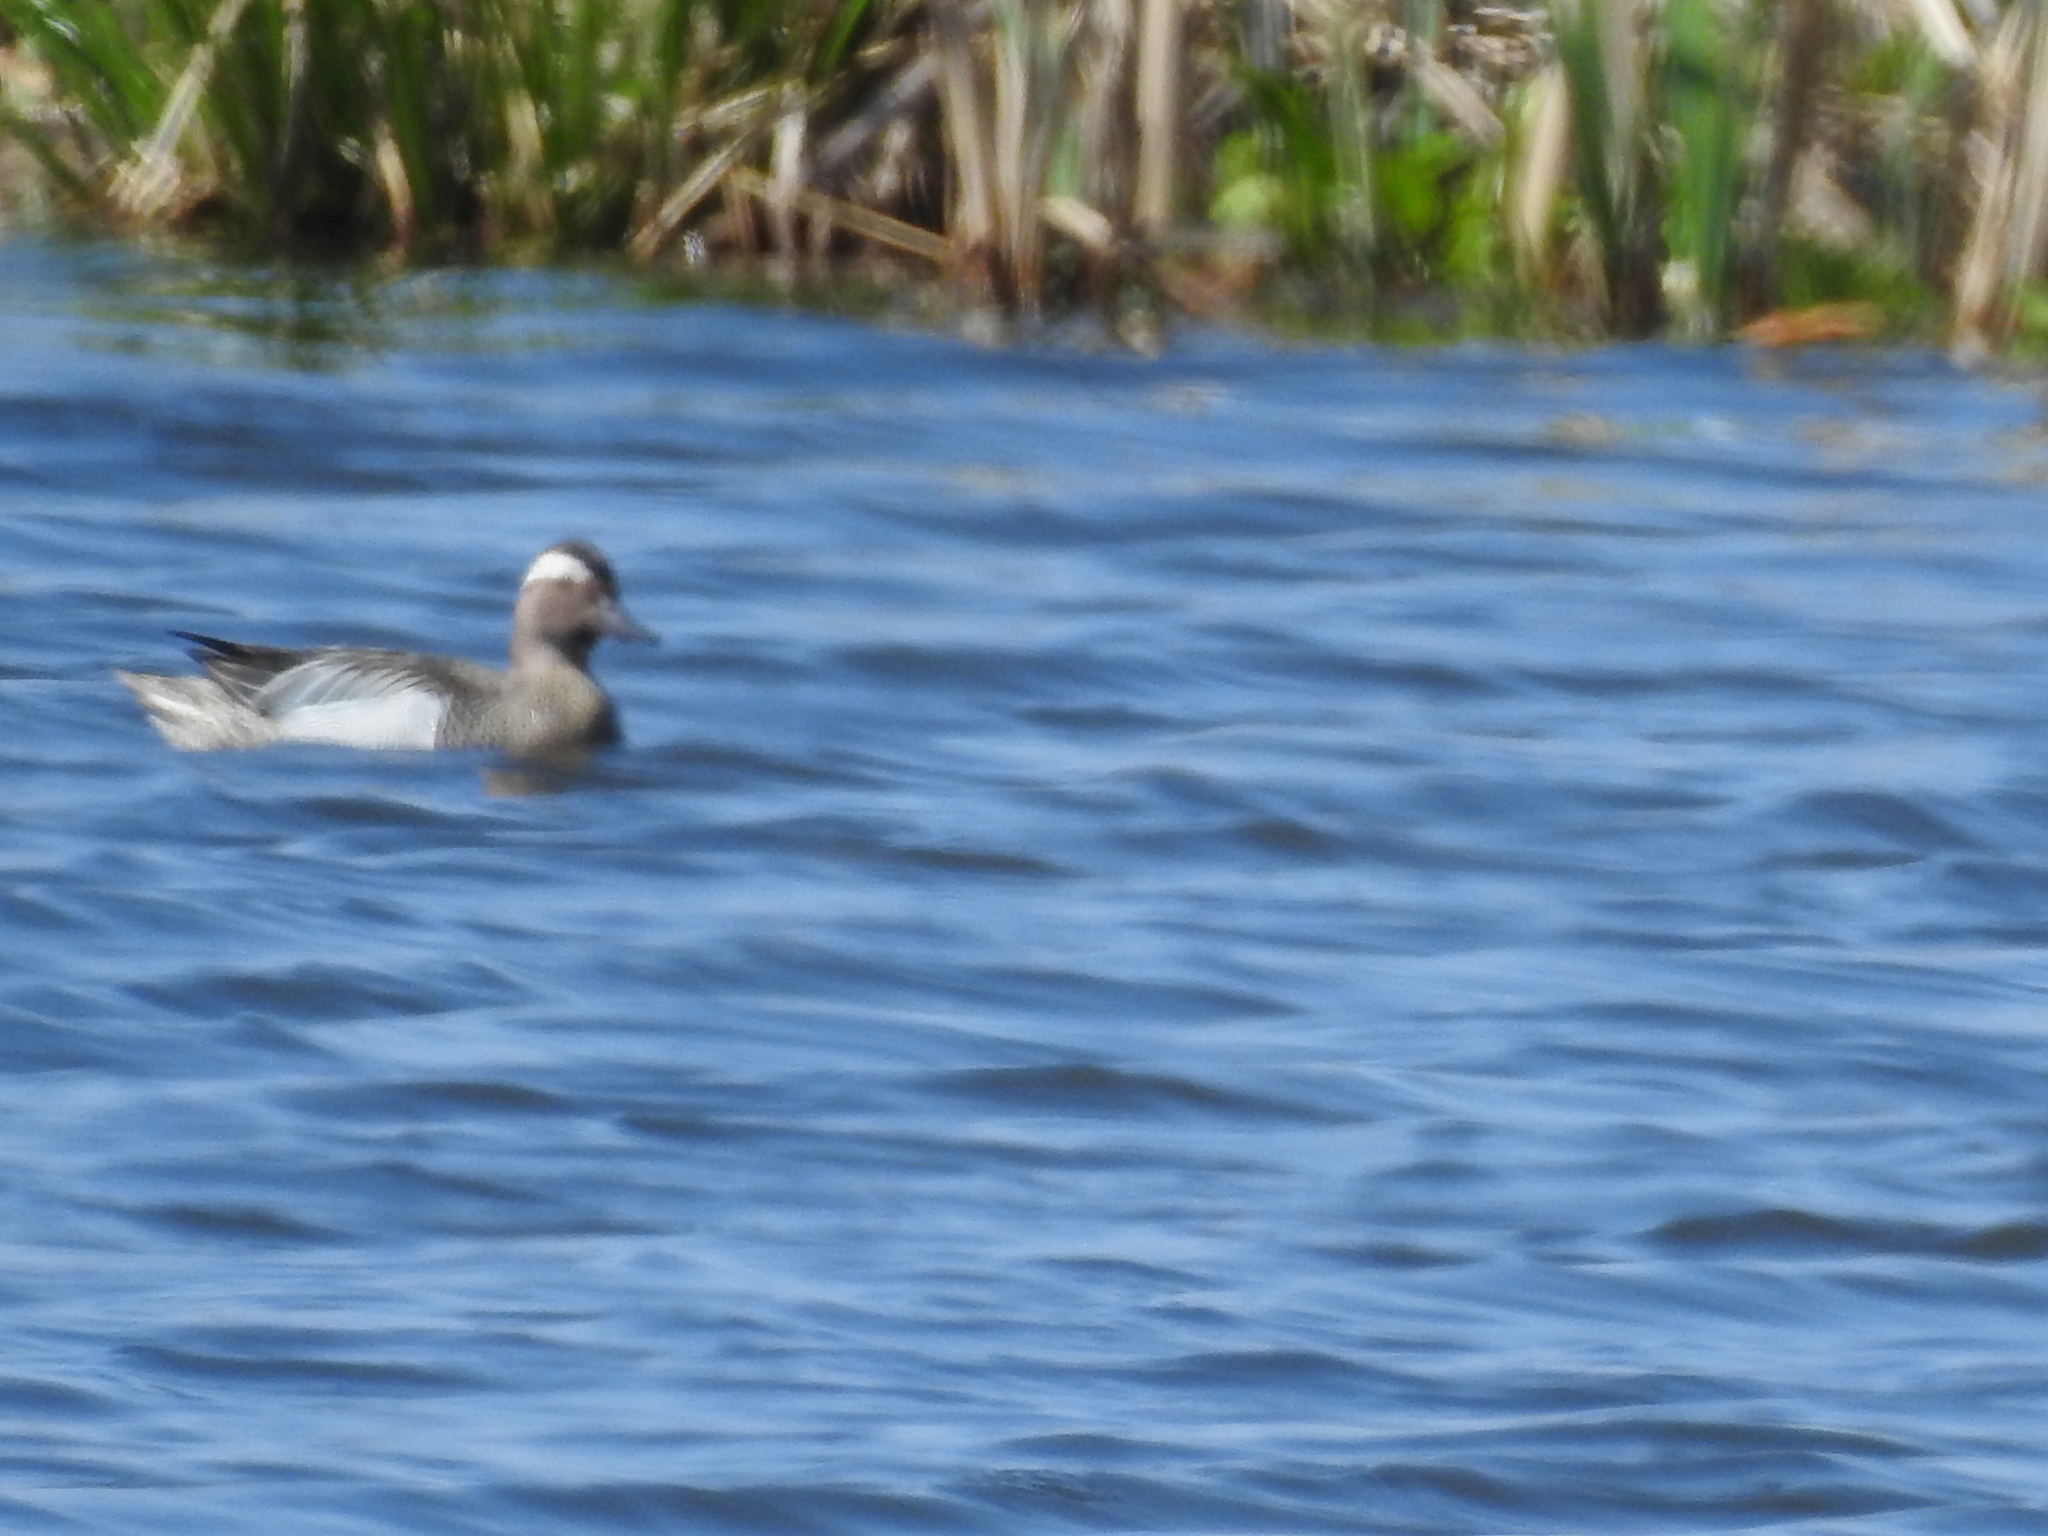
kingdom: Animalia
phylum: Chordata
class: Aves
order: Anseriformes
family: Anatidae
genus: Spatula
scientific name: Spatula querquedula
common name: Garganey
